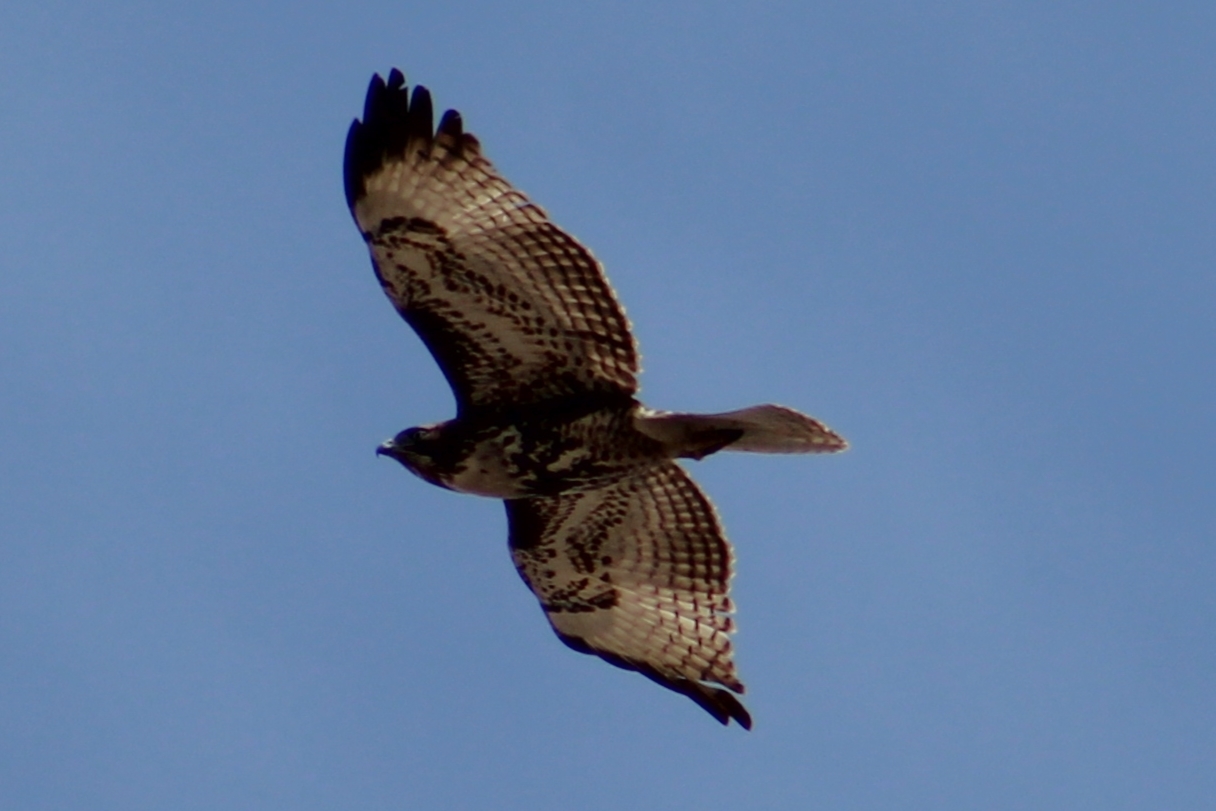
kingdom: Animalia
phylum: Chordata
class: Aves
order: Accipitriformes
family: Accipitridae
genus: Buteo
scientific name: Buteo jamaicensis
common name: Red-tailed hawk
